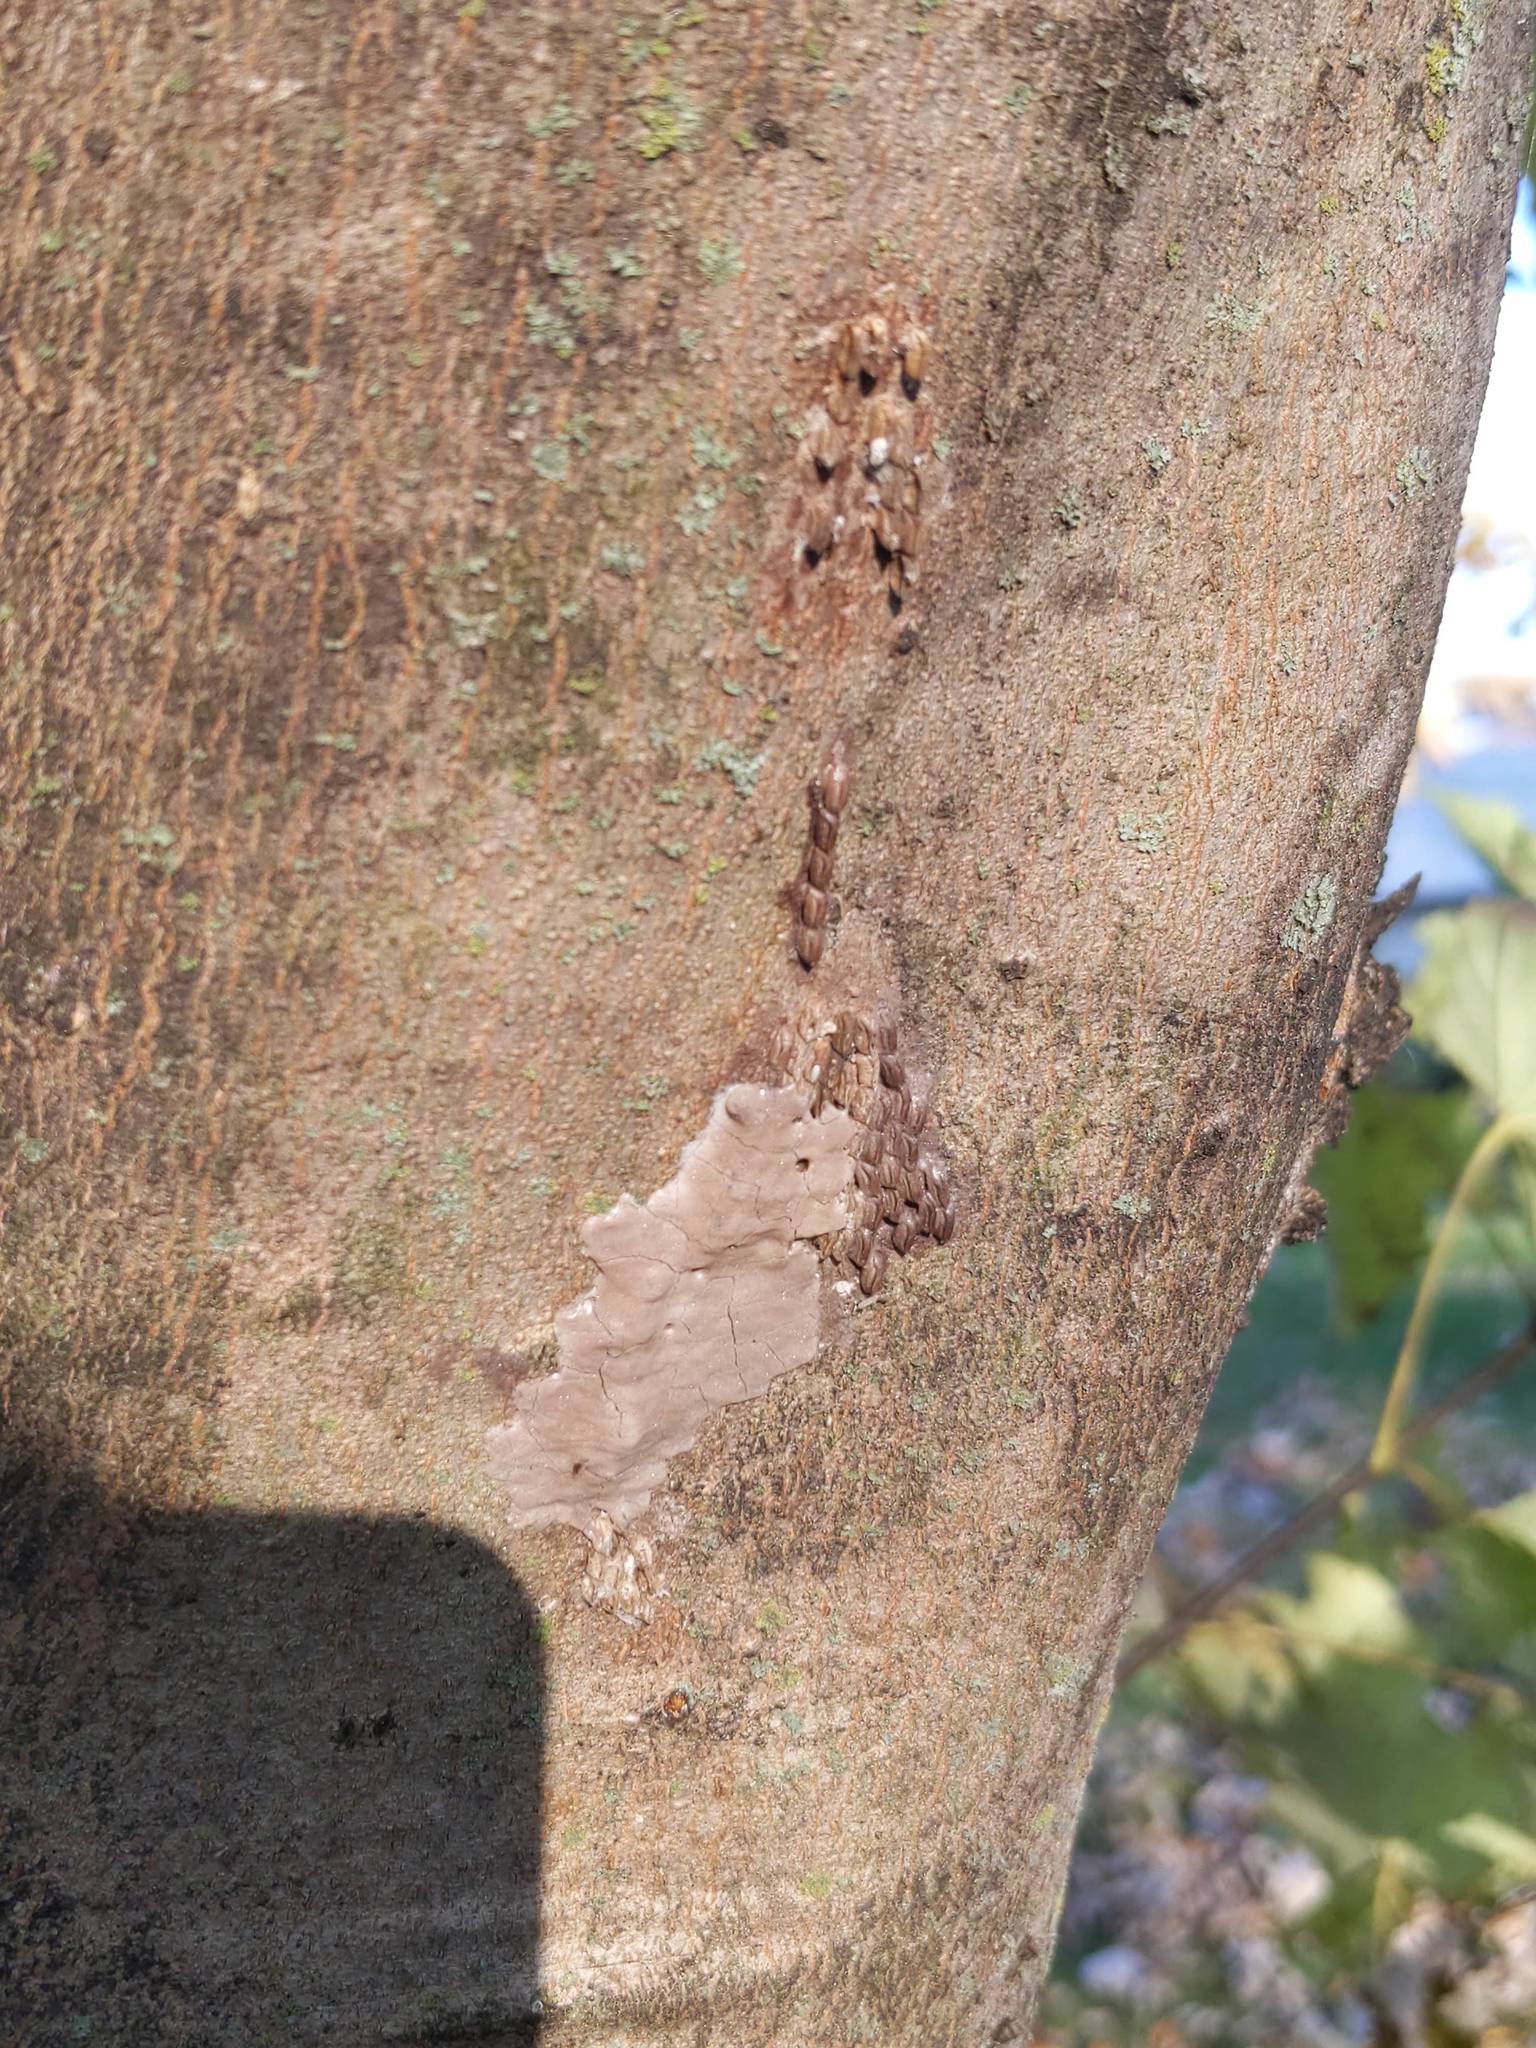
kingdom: Animalia
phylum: Arthropoda
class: Insecta
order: Hemiptera
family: Fulgoridae
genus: Lycorma
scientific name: Lycorma delicatula
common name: Spotted lanternfly
